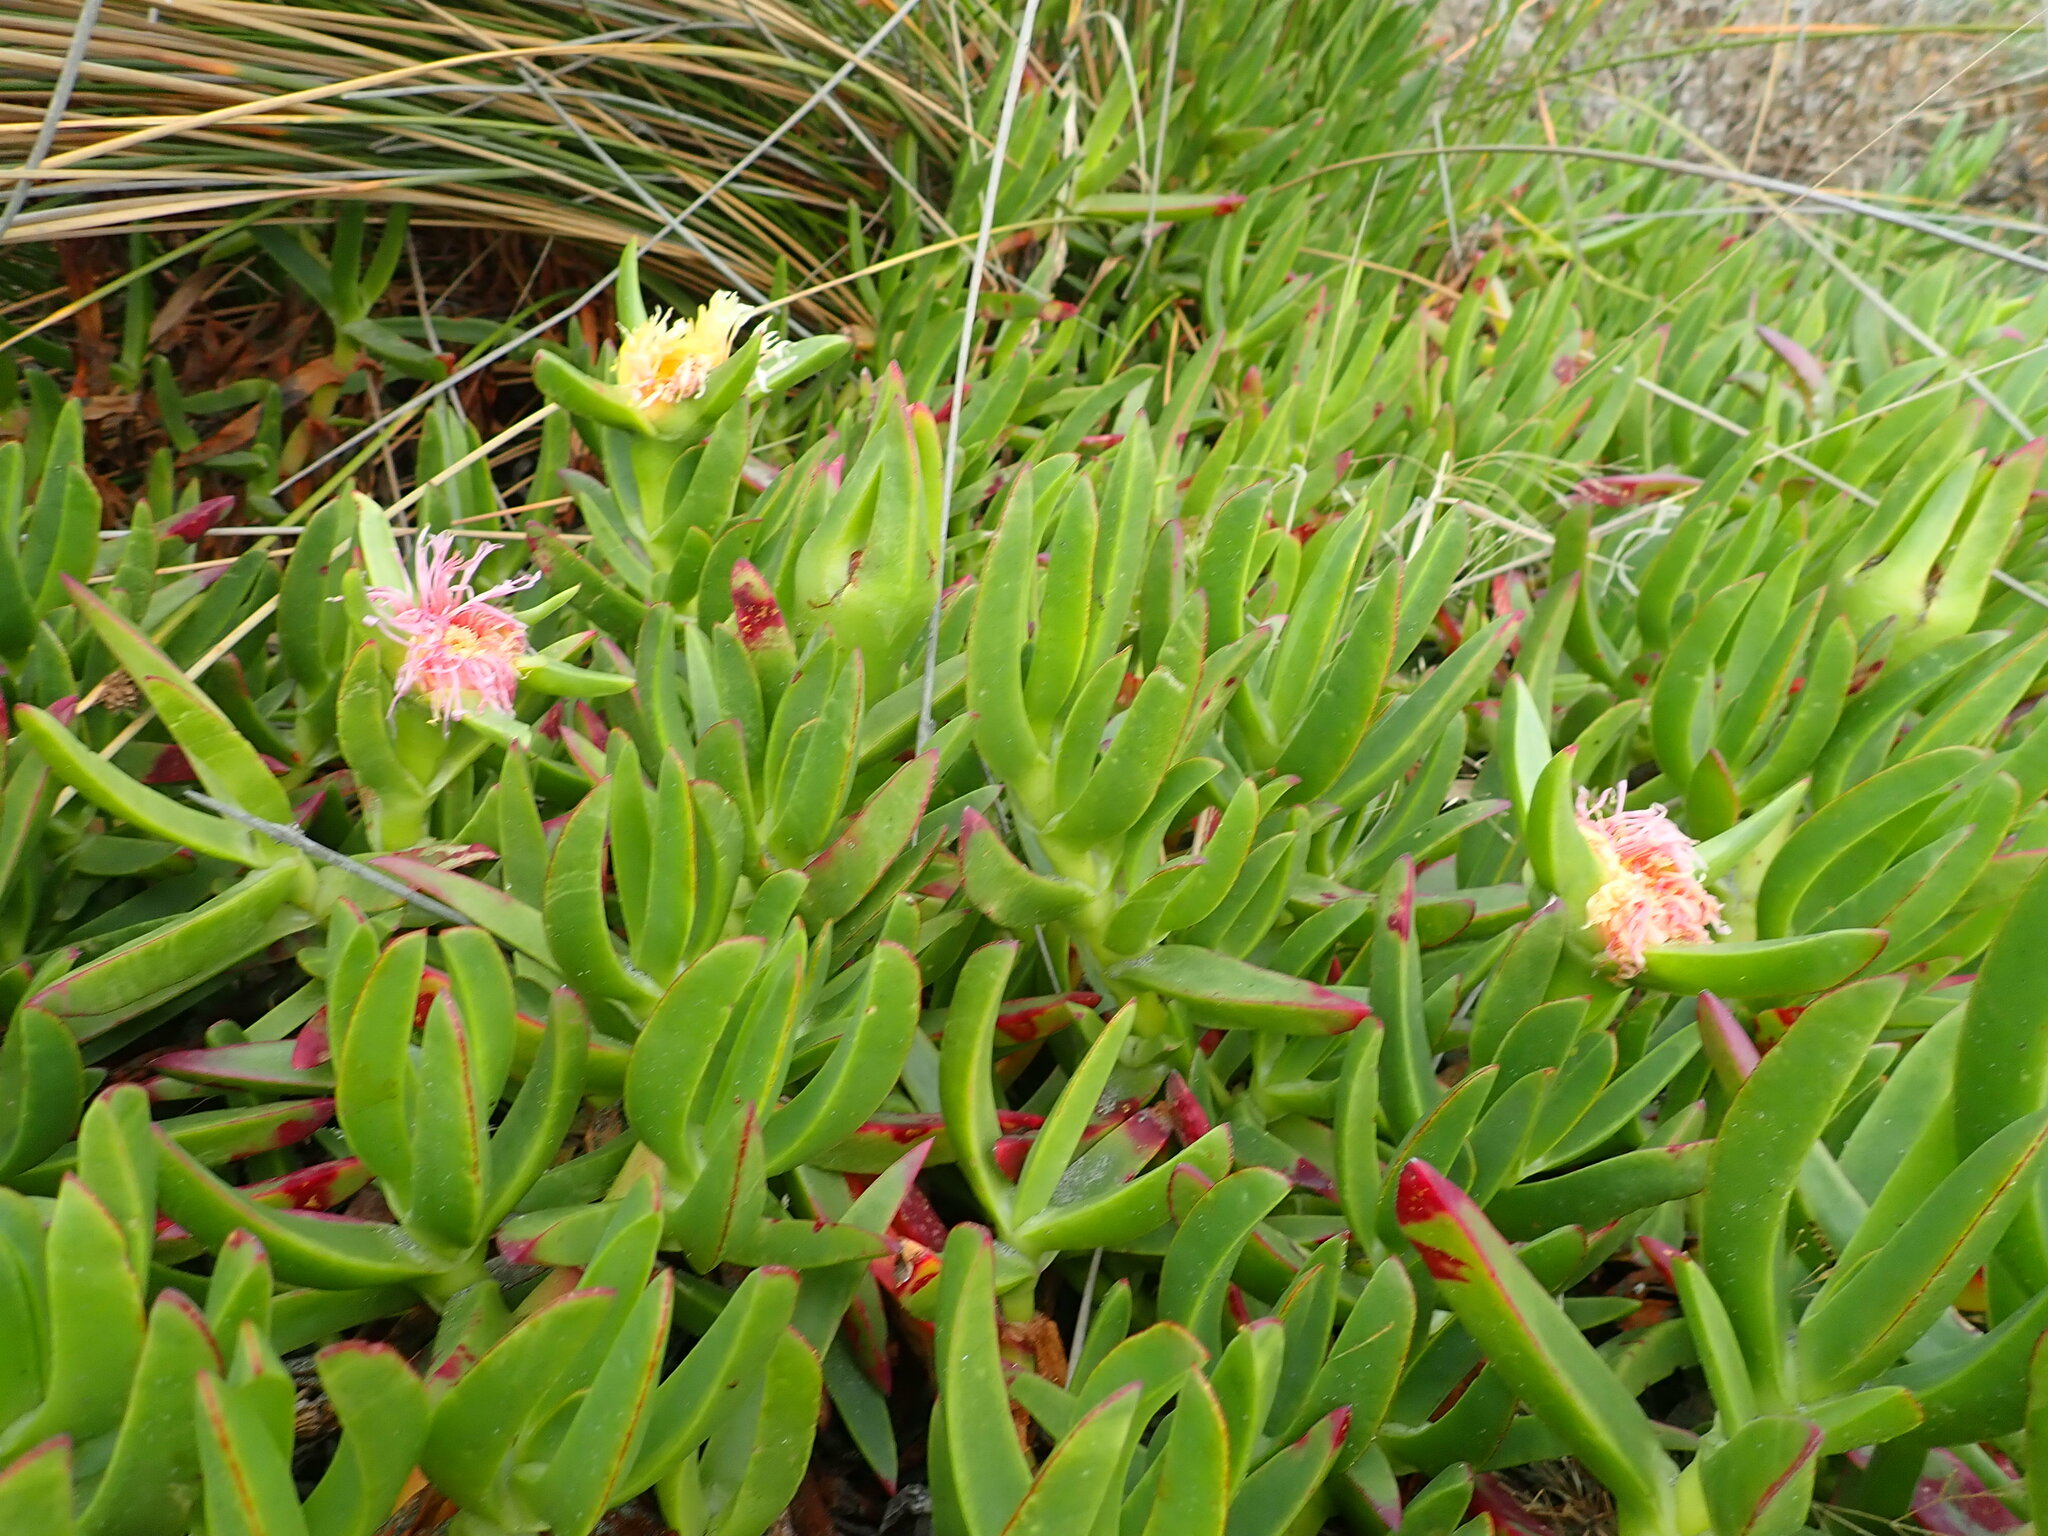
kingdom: Plantae
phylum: Tracheophyta
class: Magnoliopsida
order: Caryophyllales
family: Aizoaceae
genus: Carpobrotus
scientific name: Carpobrotus edulis
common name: Hottentot-fig
